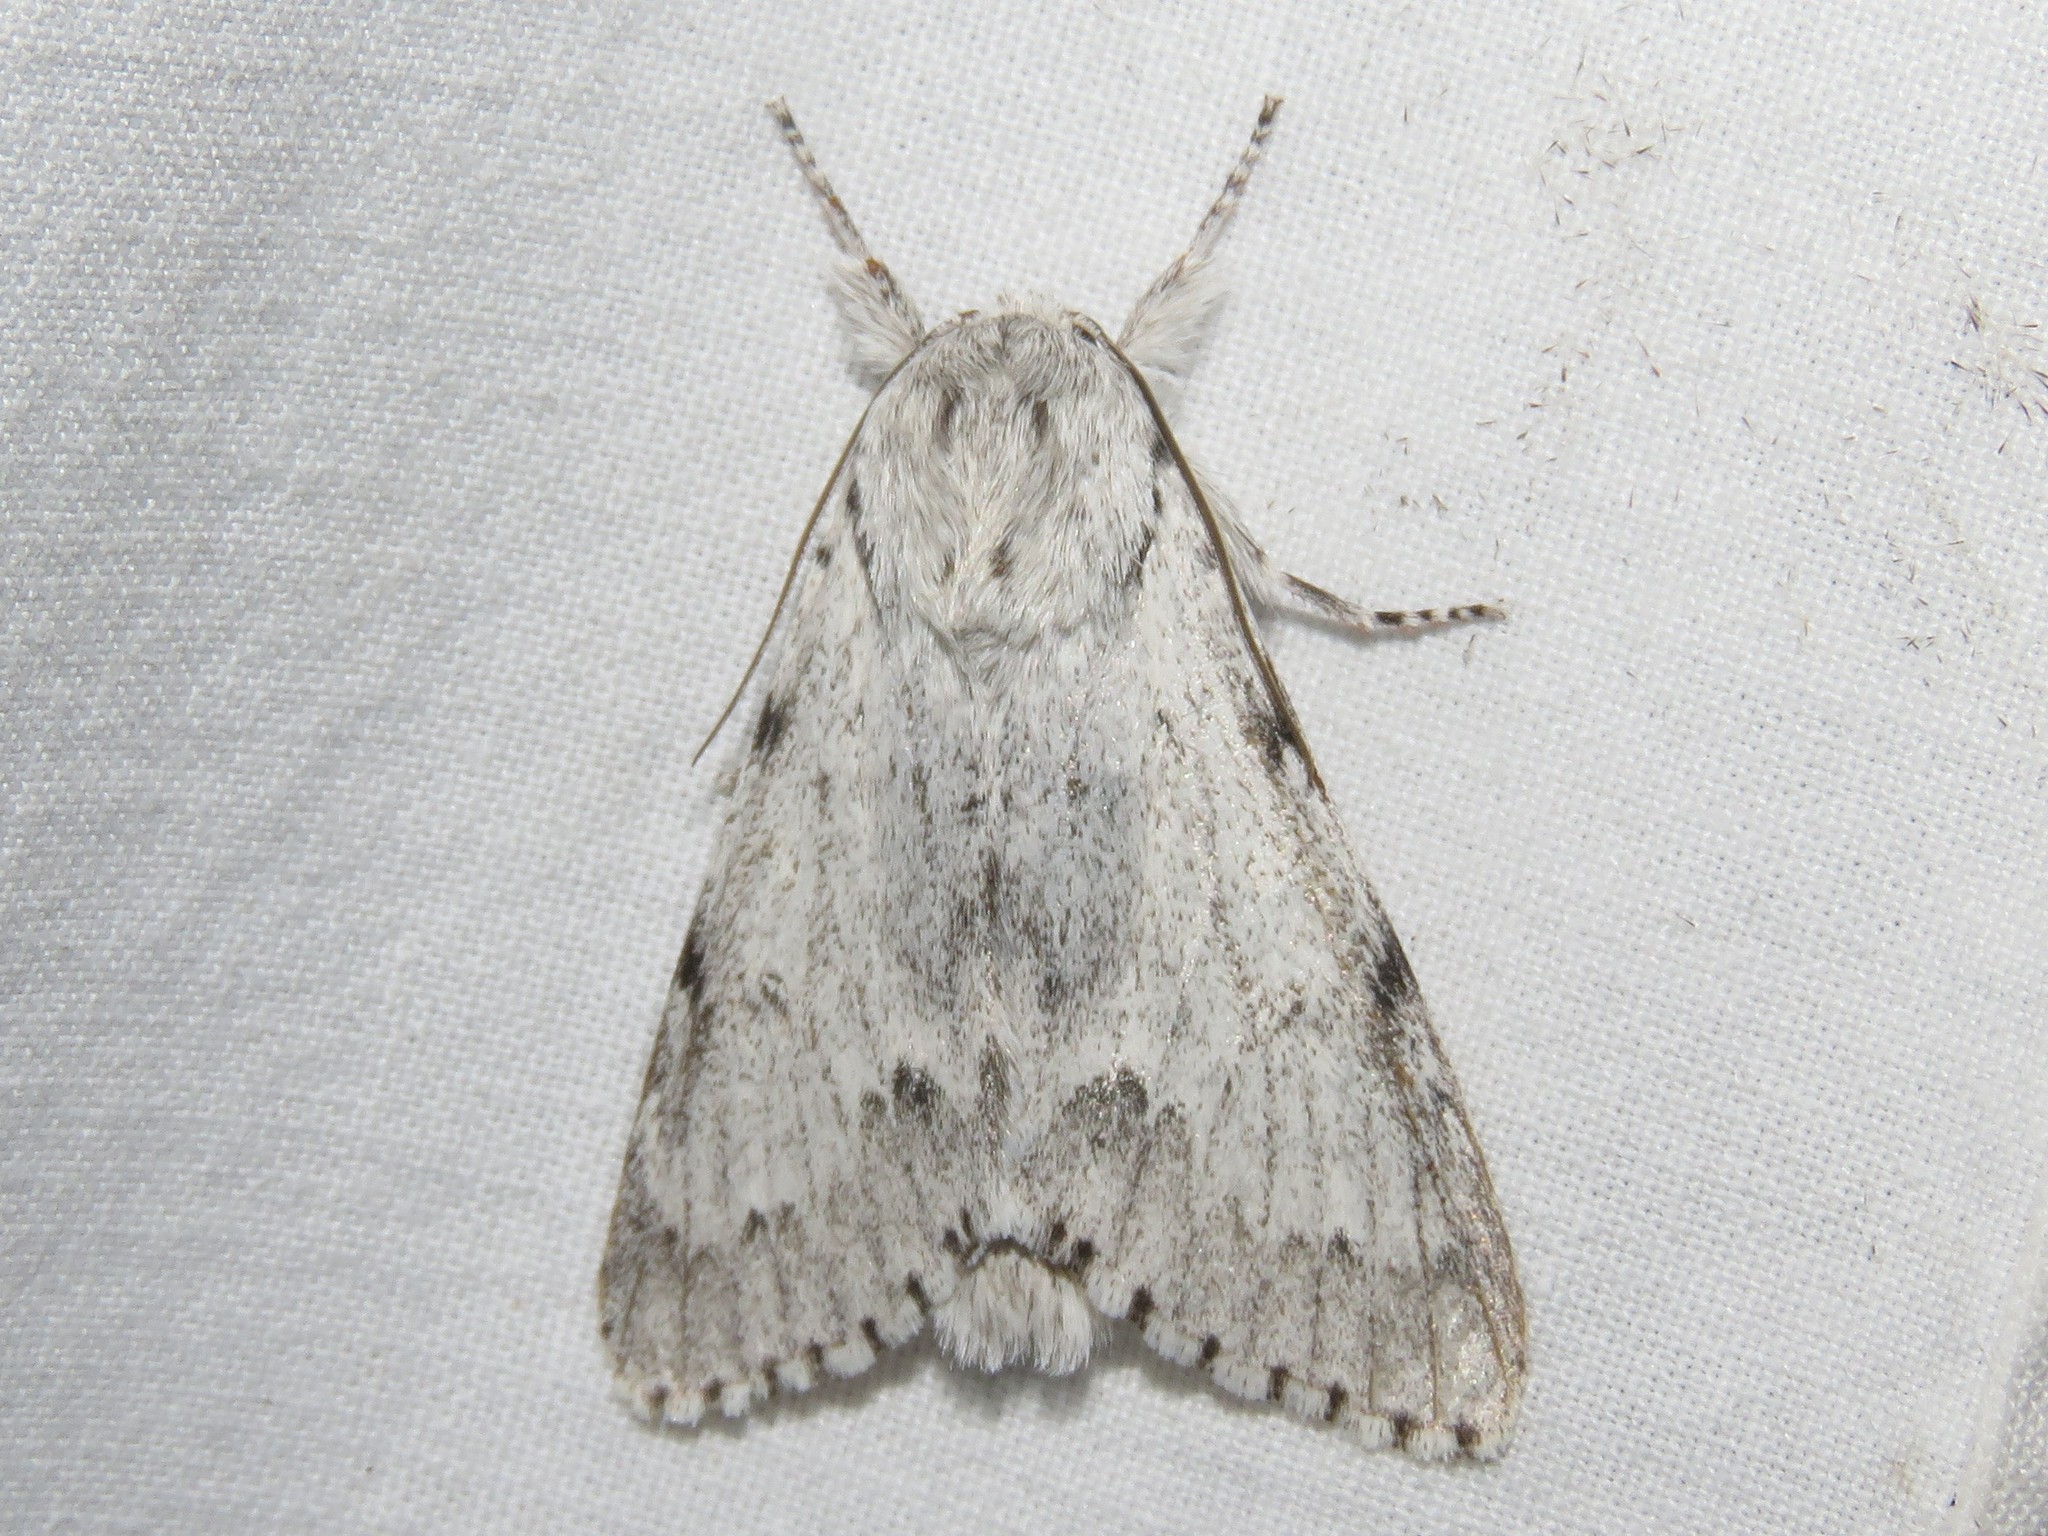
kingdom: Animalia
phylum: Arthropoda
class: Insecta
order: Lepidoptera
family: Noctuidae
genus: Acronicta
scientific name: Acronicta lepusculina
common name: Cottonwood dagger
